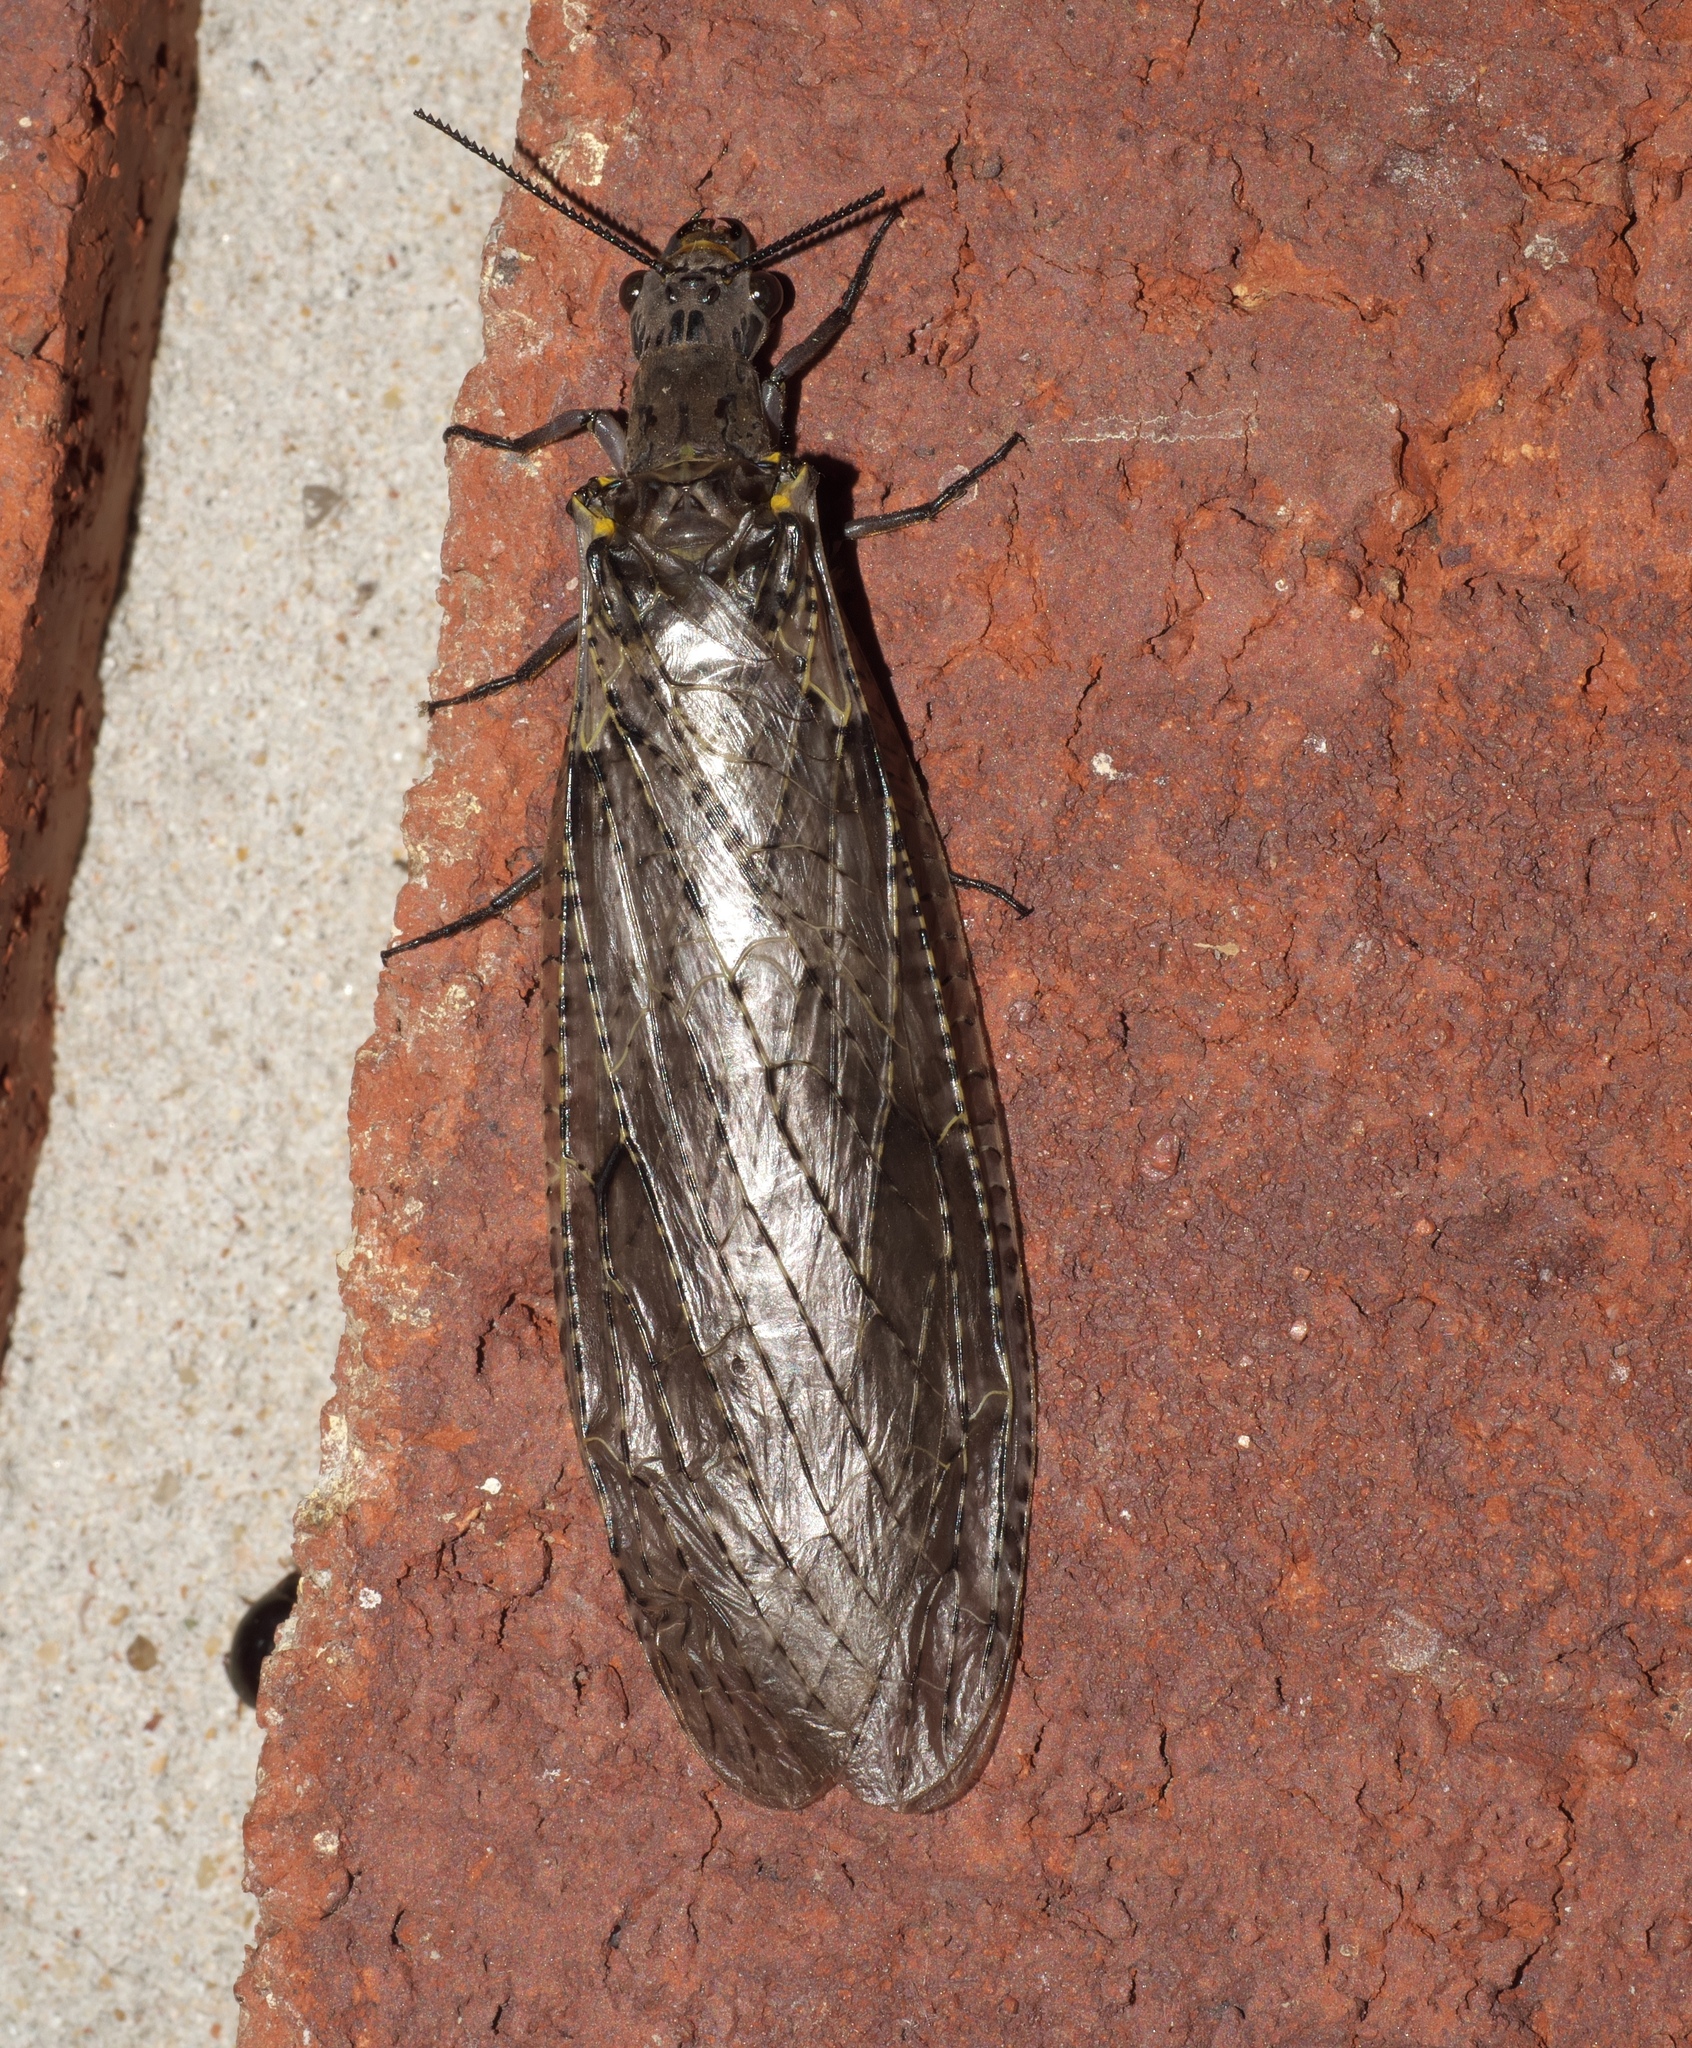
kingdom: Animalia
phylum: Arthropoda
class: Insecta
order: Megaloptera
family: Corydalidae
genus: Chauliodes
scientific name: Chauliodes rastricornis
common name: Spring fishfly
